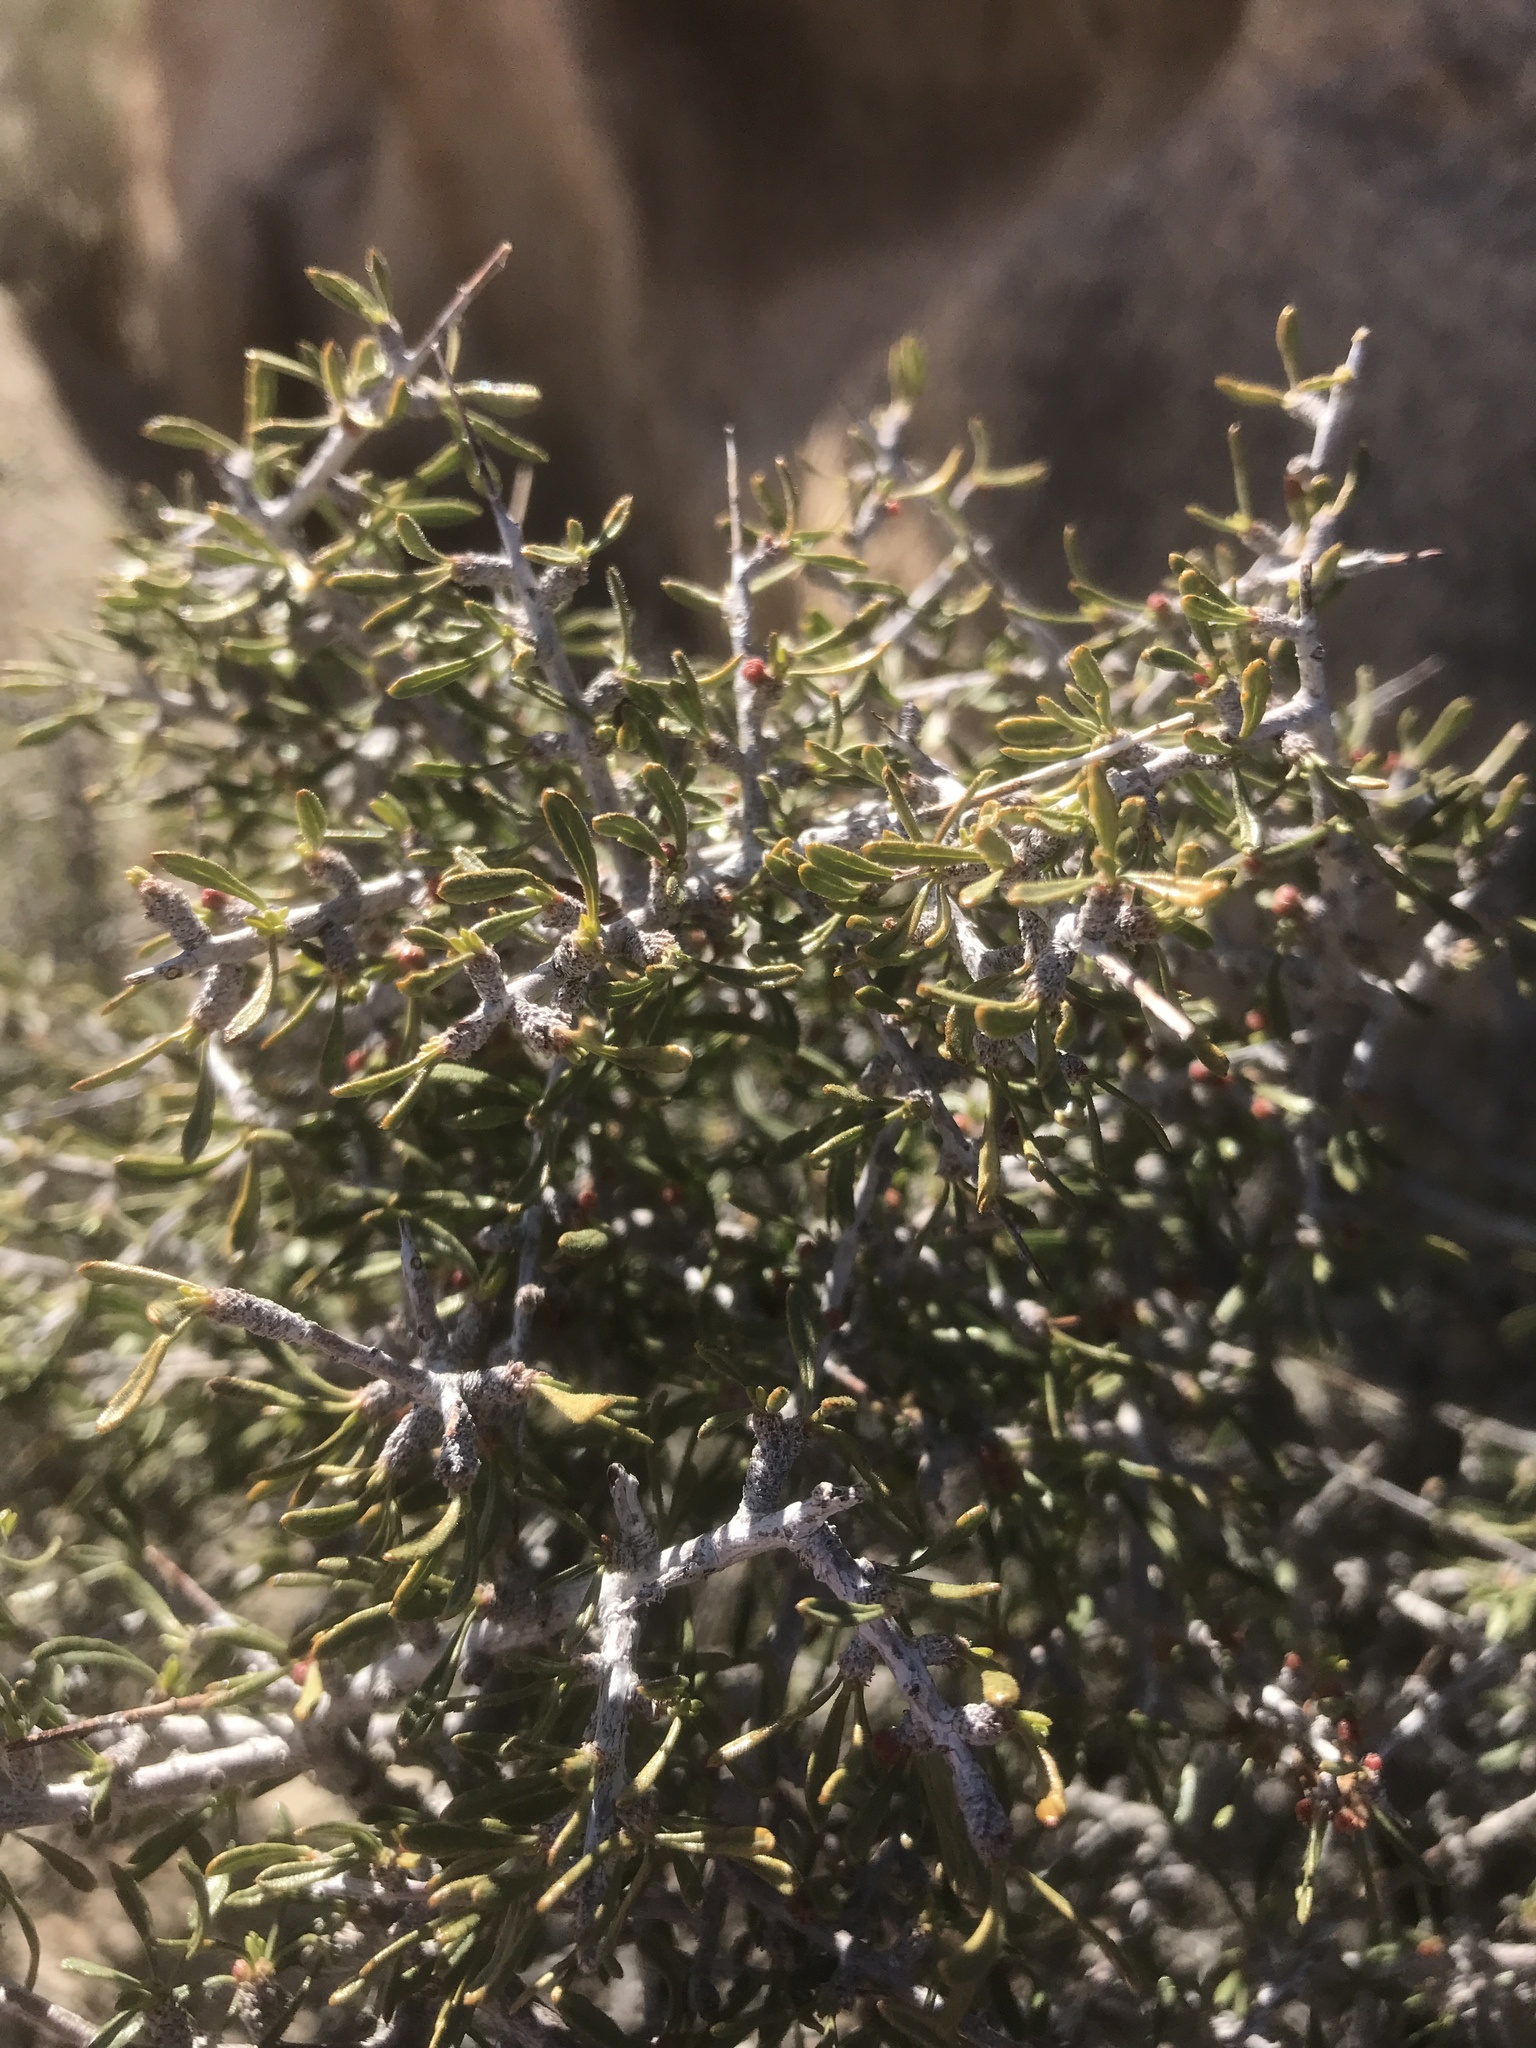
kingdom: Plantae
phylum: Tracheophyta
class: Magnoliopsida
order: Rosales
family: Rosaceae
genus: Prunus
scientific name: Prunus fasciculata
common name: Desert almond
